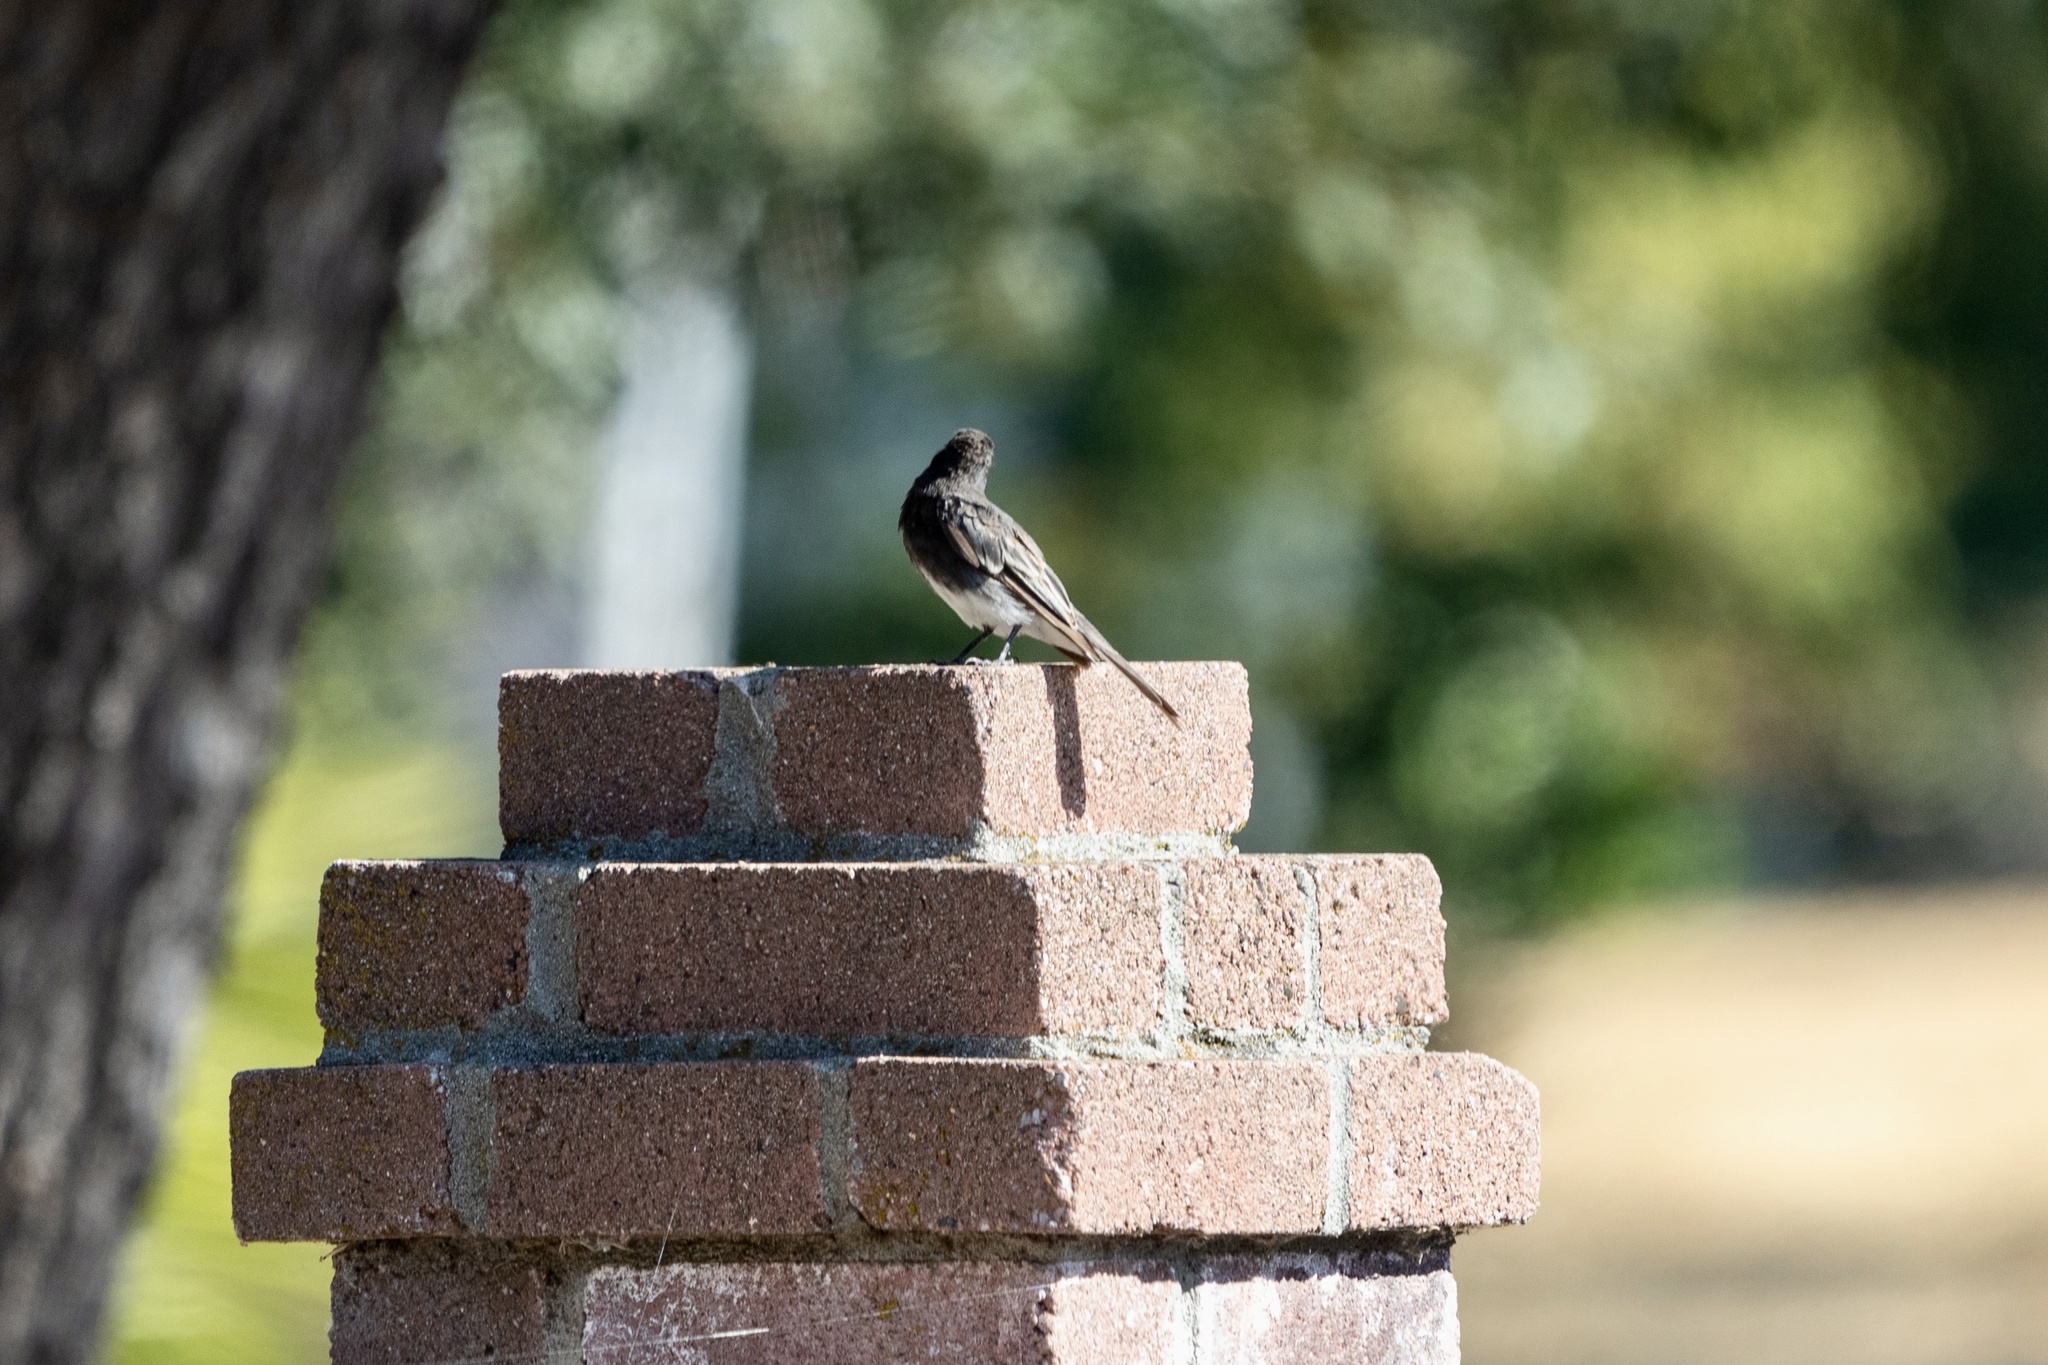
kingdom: Animalia
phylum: Chordata
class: Aves
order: Passeriformes
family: Tyrannidae
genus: Sayornis
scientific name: Sayornis nigricans
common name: Black phoebe
